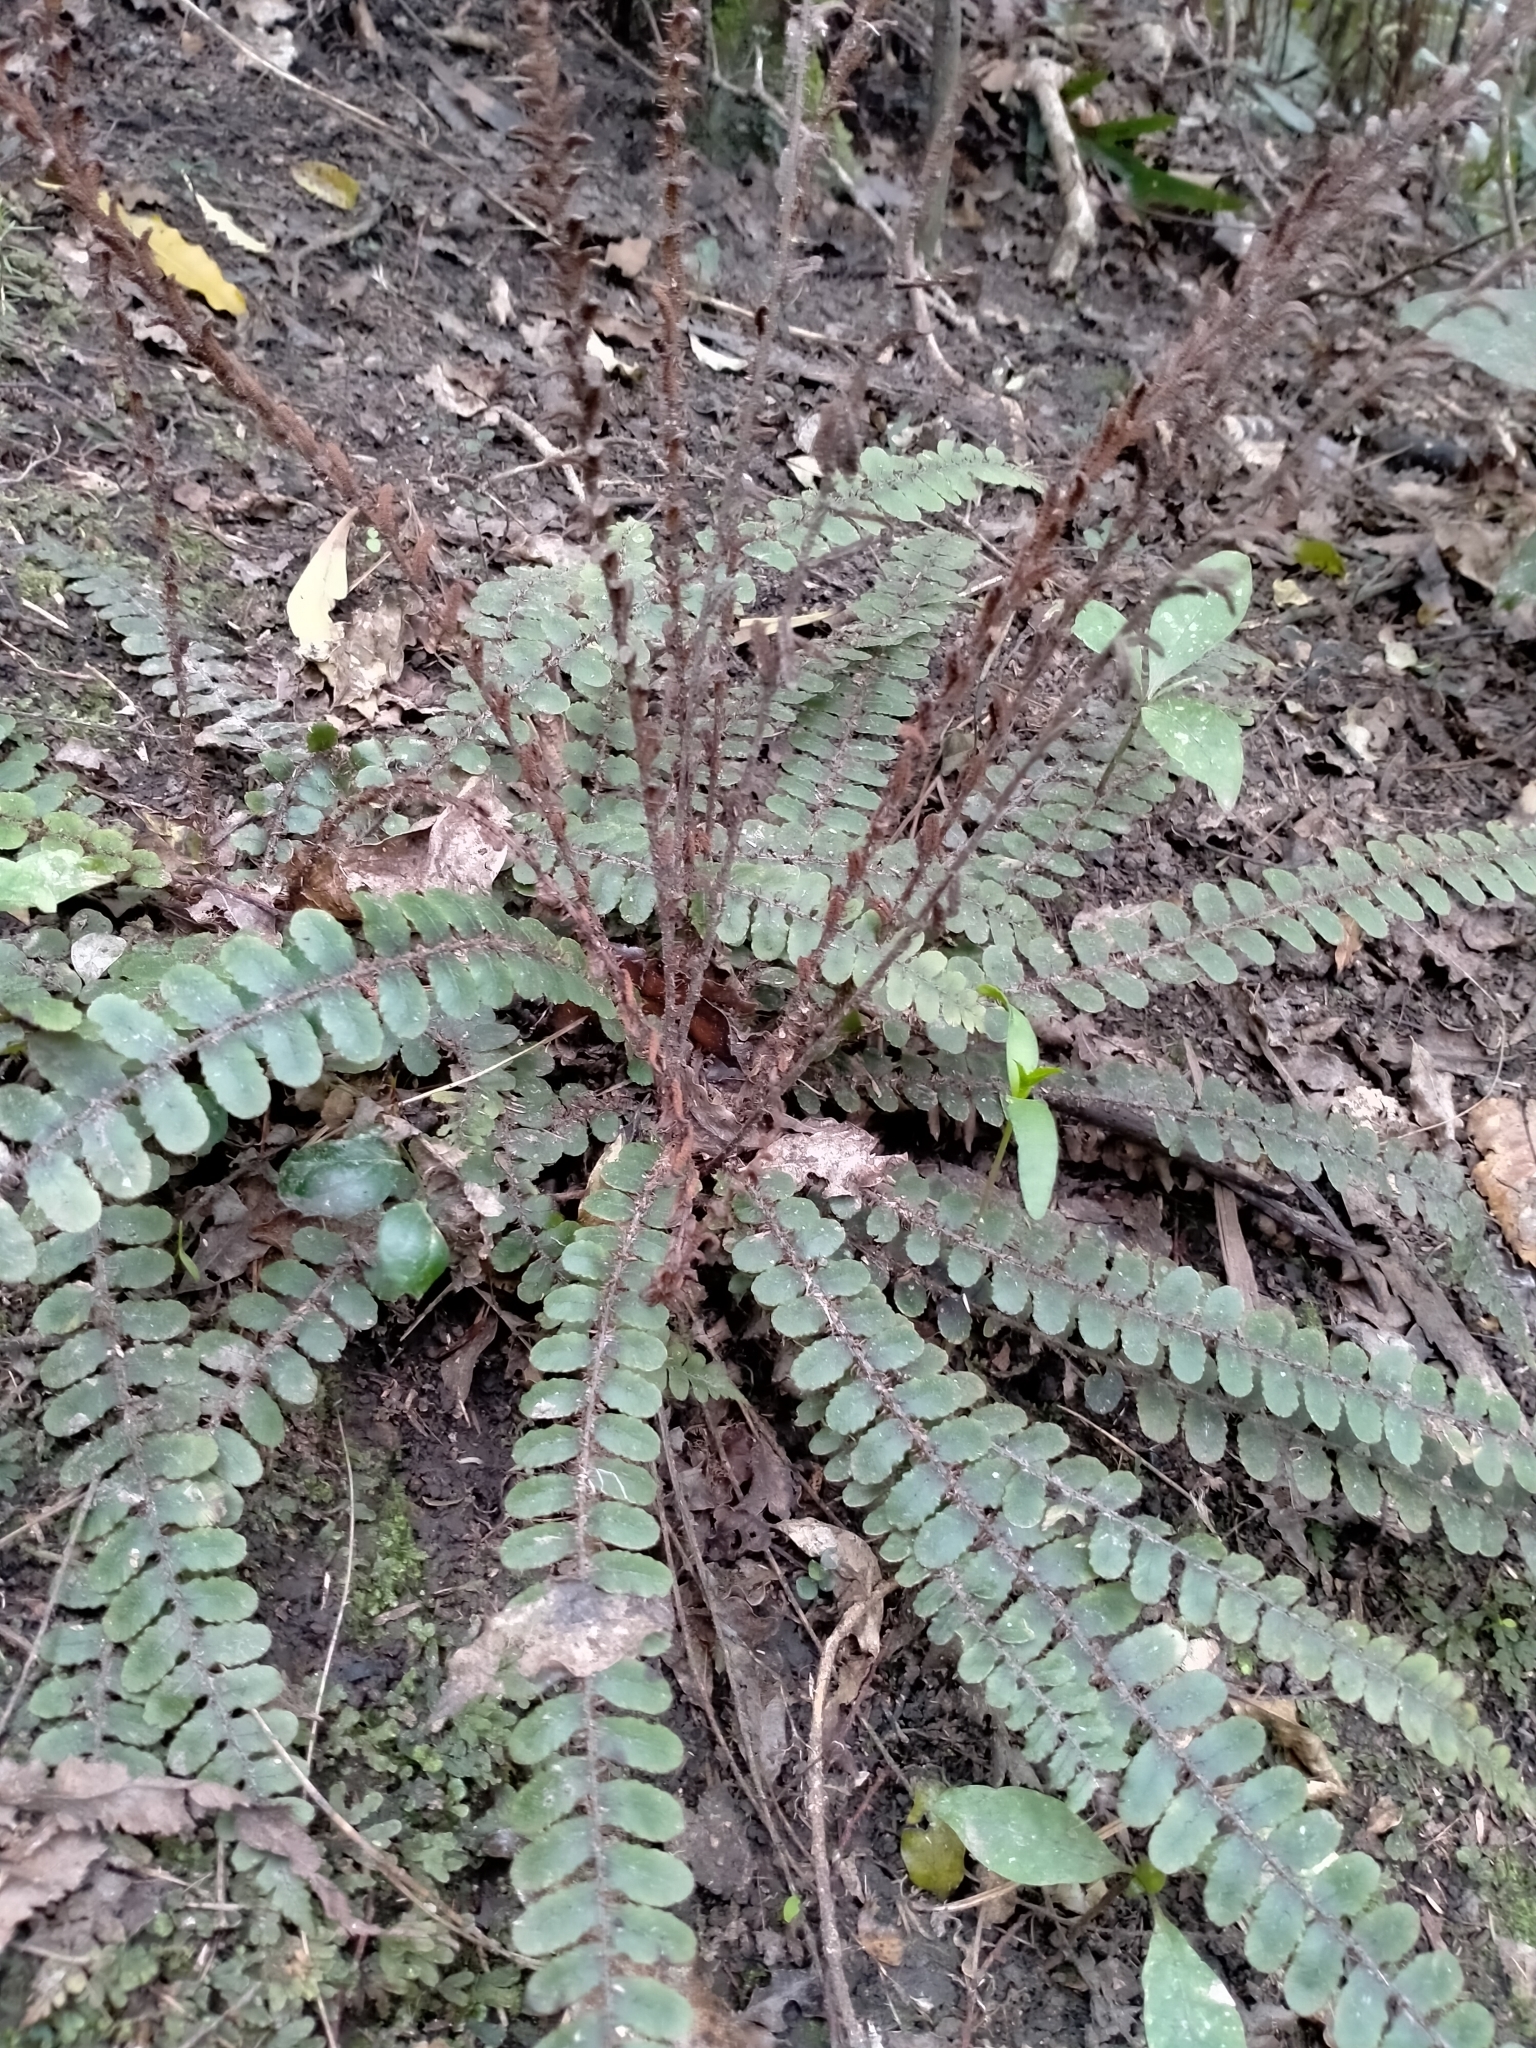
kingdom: Plantae
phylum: Tracheophyta
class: Polypodiopsida
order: Polypodiales
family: Blechnaceae
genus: Cranfillia
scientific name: Cranfillia fluviatilis
